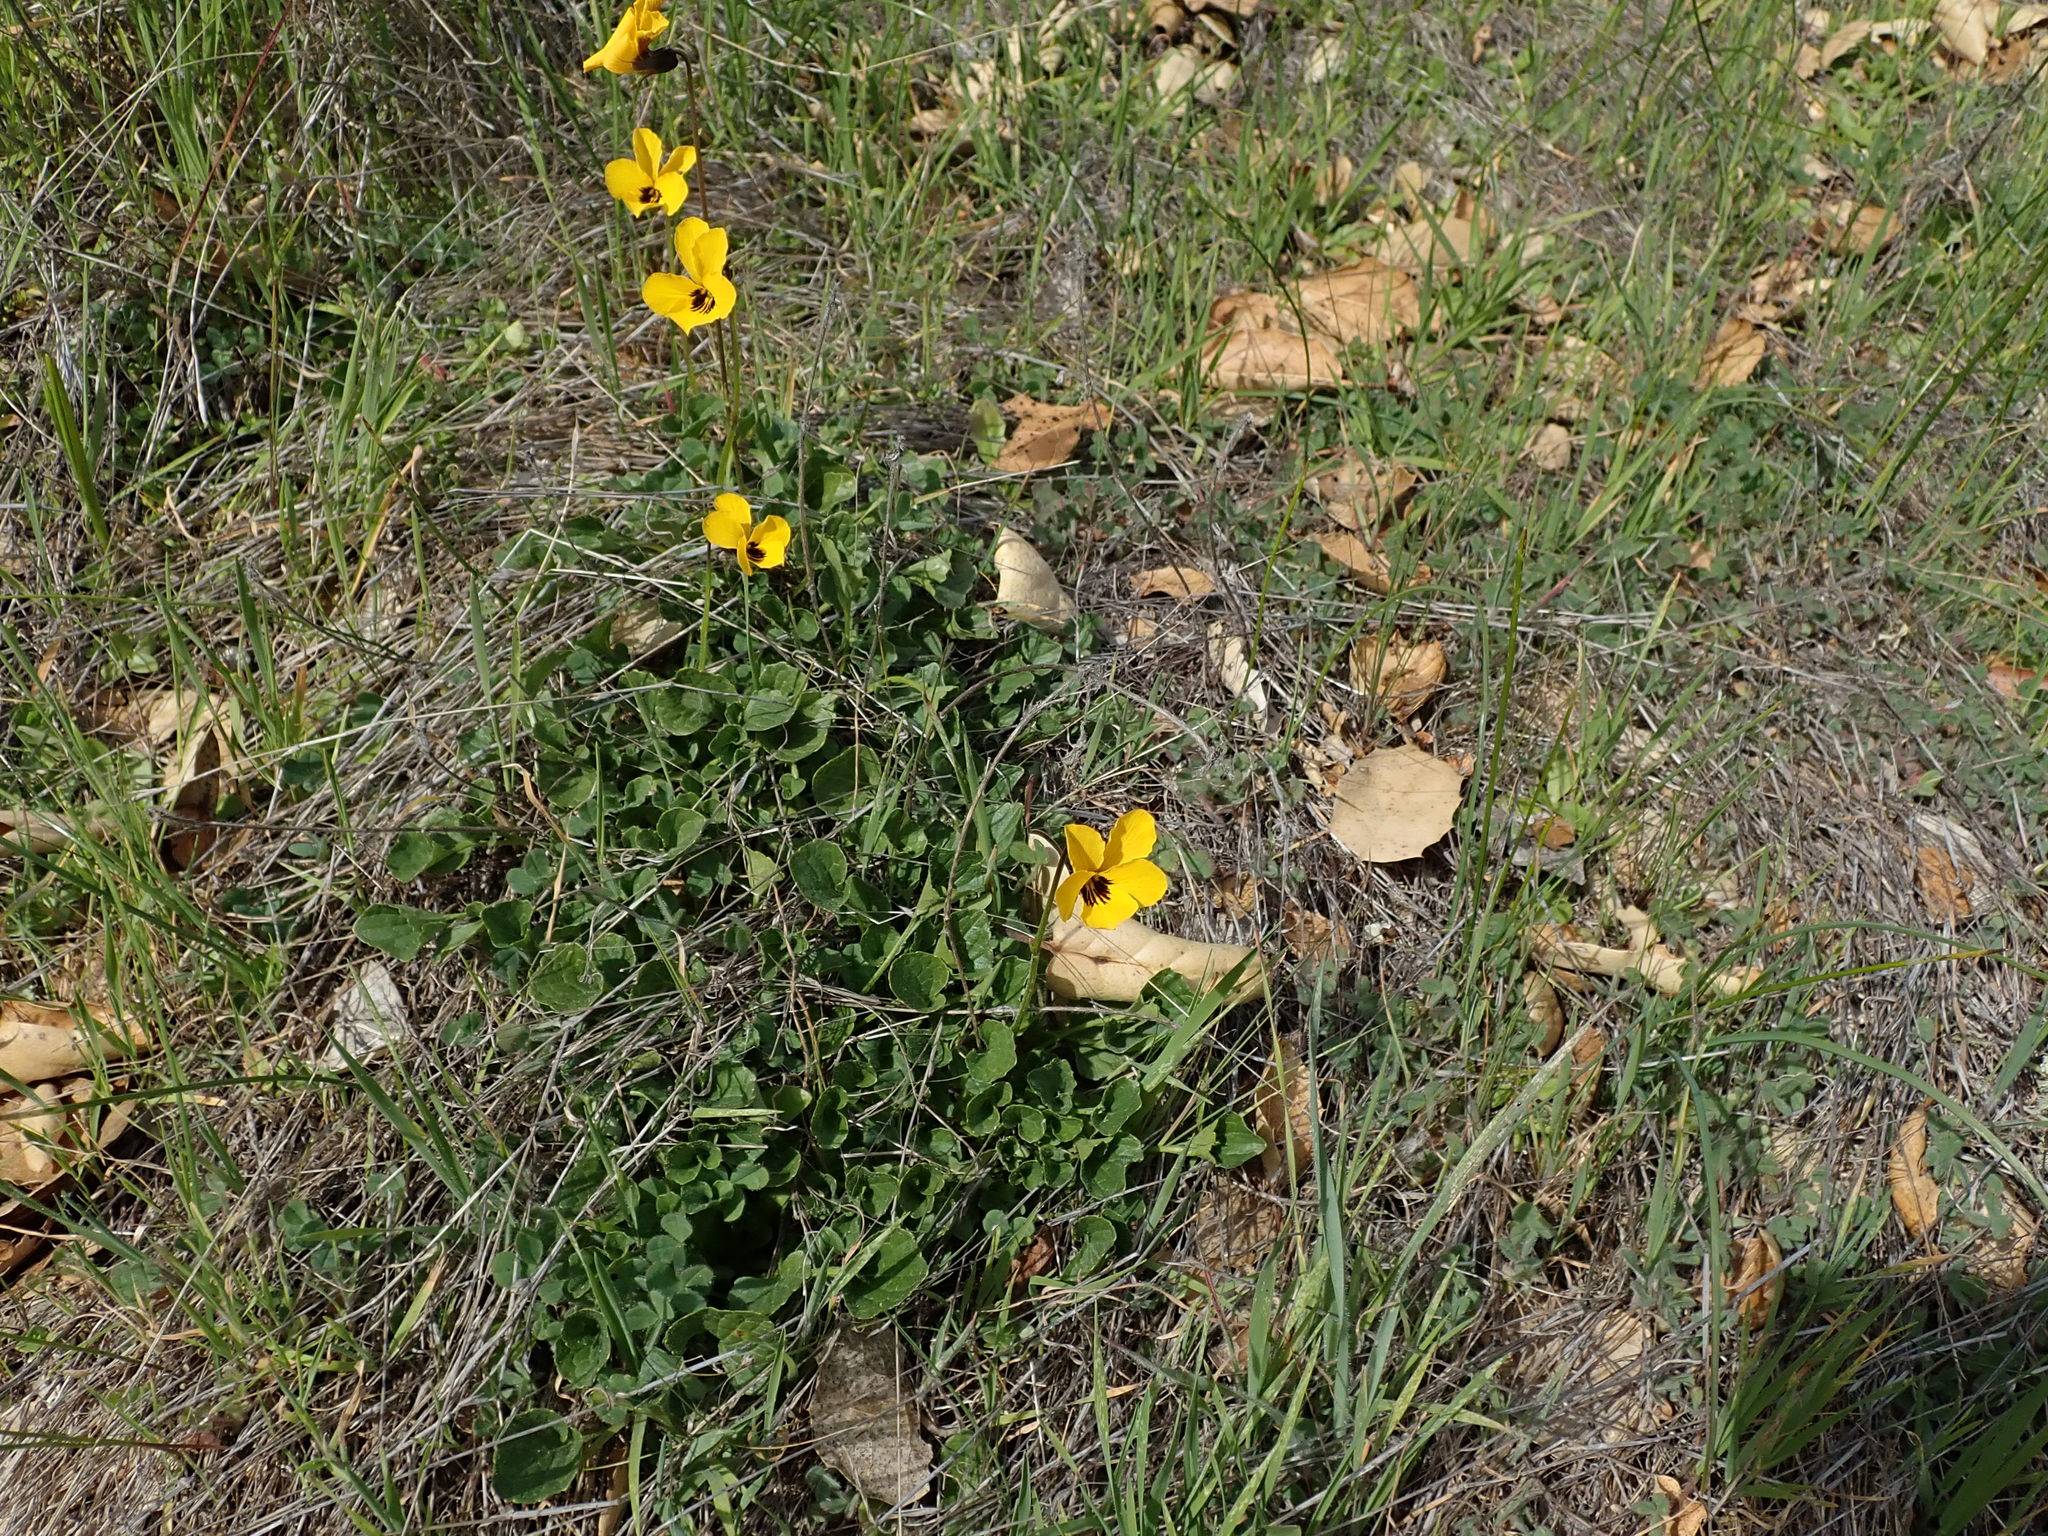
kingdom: Plantae
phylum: Tracheophyta
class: Magnoliopsida
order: Malpighiales
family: Violaceae
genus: Viola
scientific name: Viola pedunculata
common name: California golden violet
